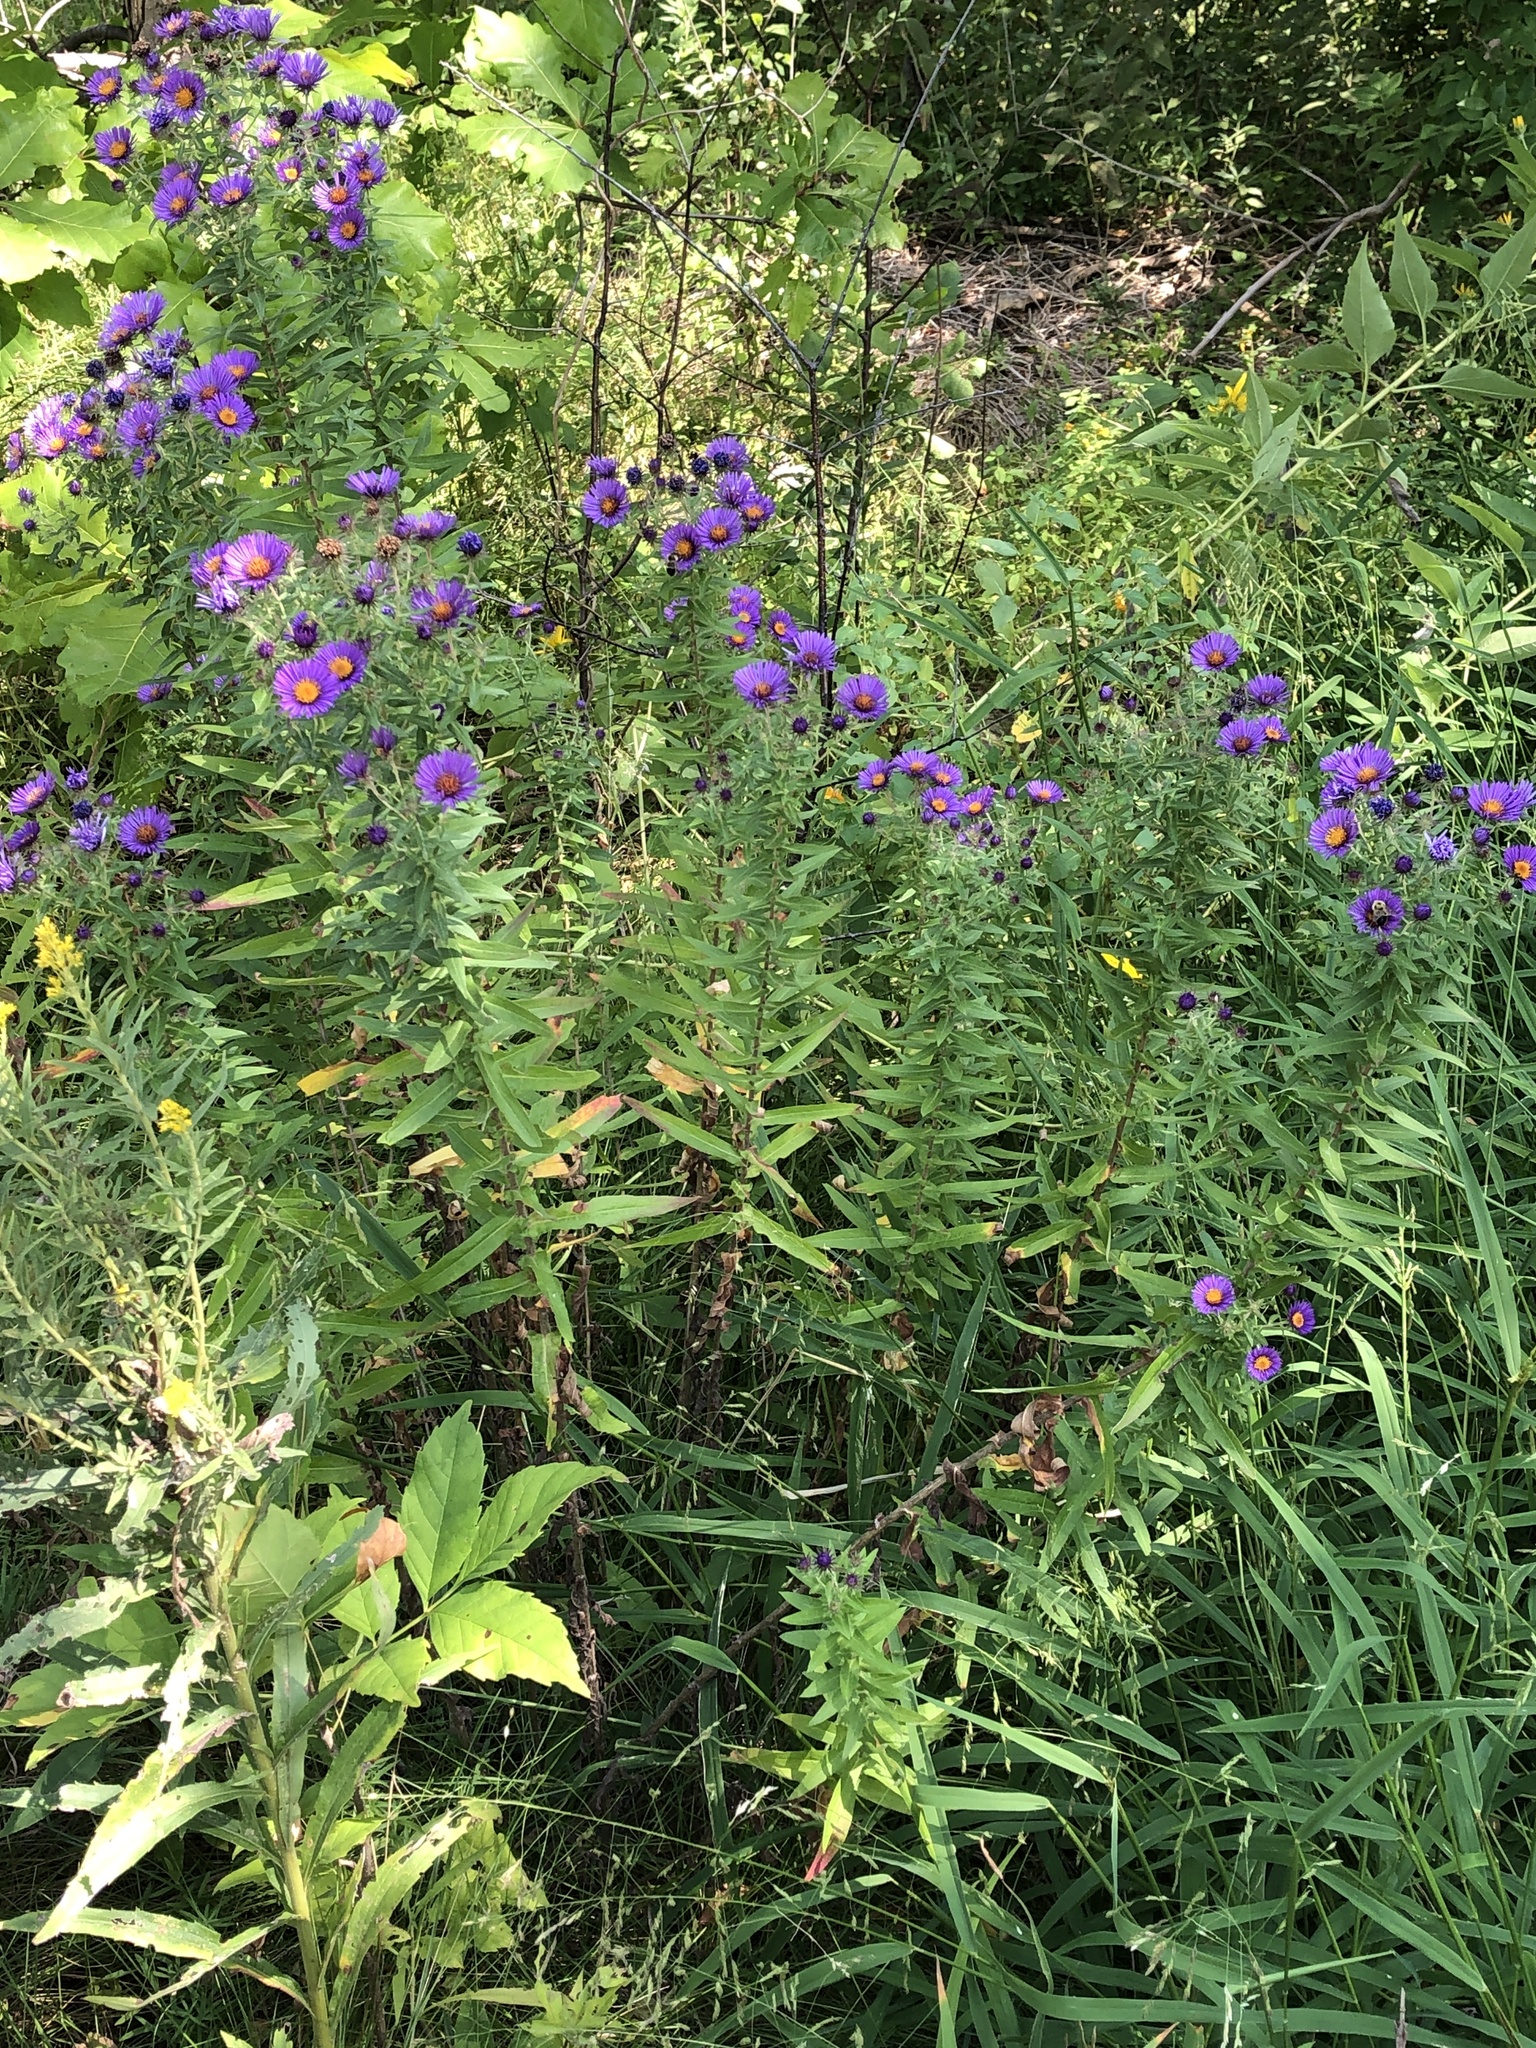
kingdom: Plantae
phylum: Tracheophyta
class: Magnoliopsida
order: Asterales
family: Asteraceae
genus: Symphyotrichum
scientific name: Symphyotrichum novae-angliae
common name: Michaelmas daisy
